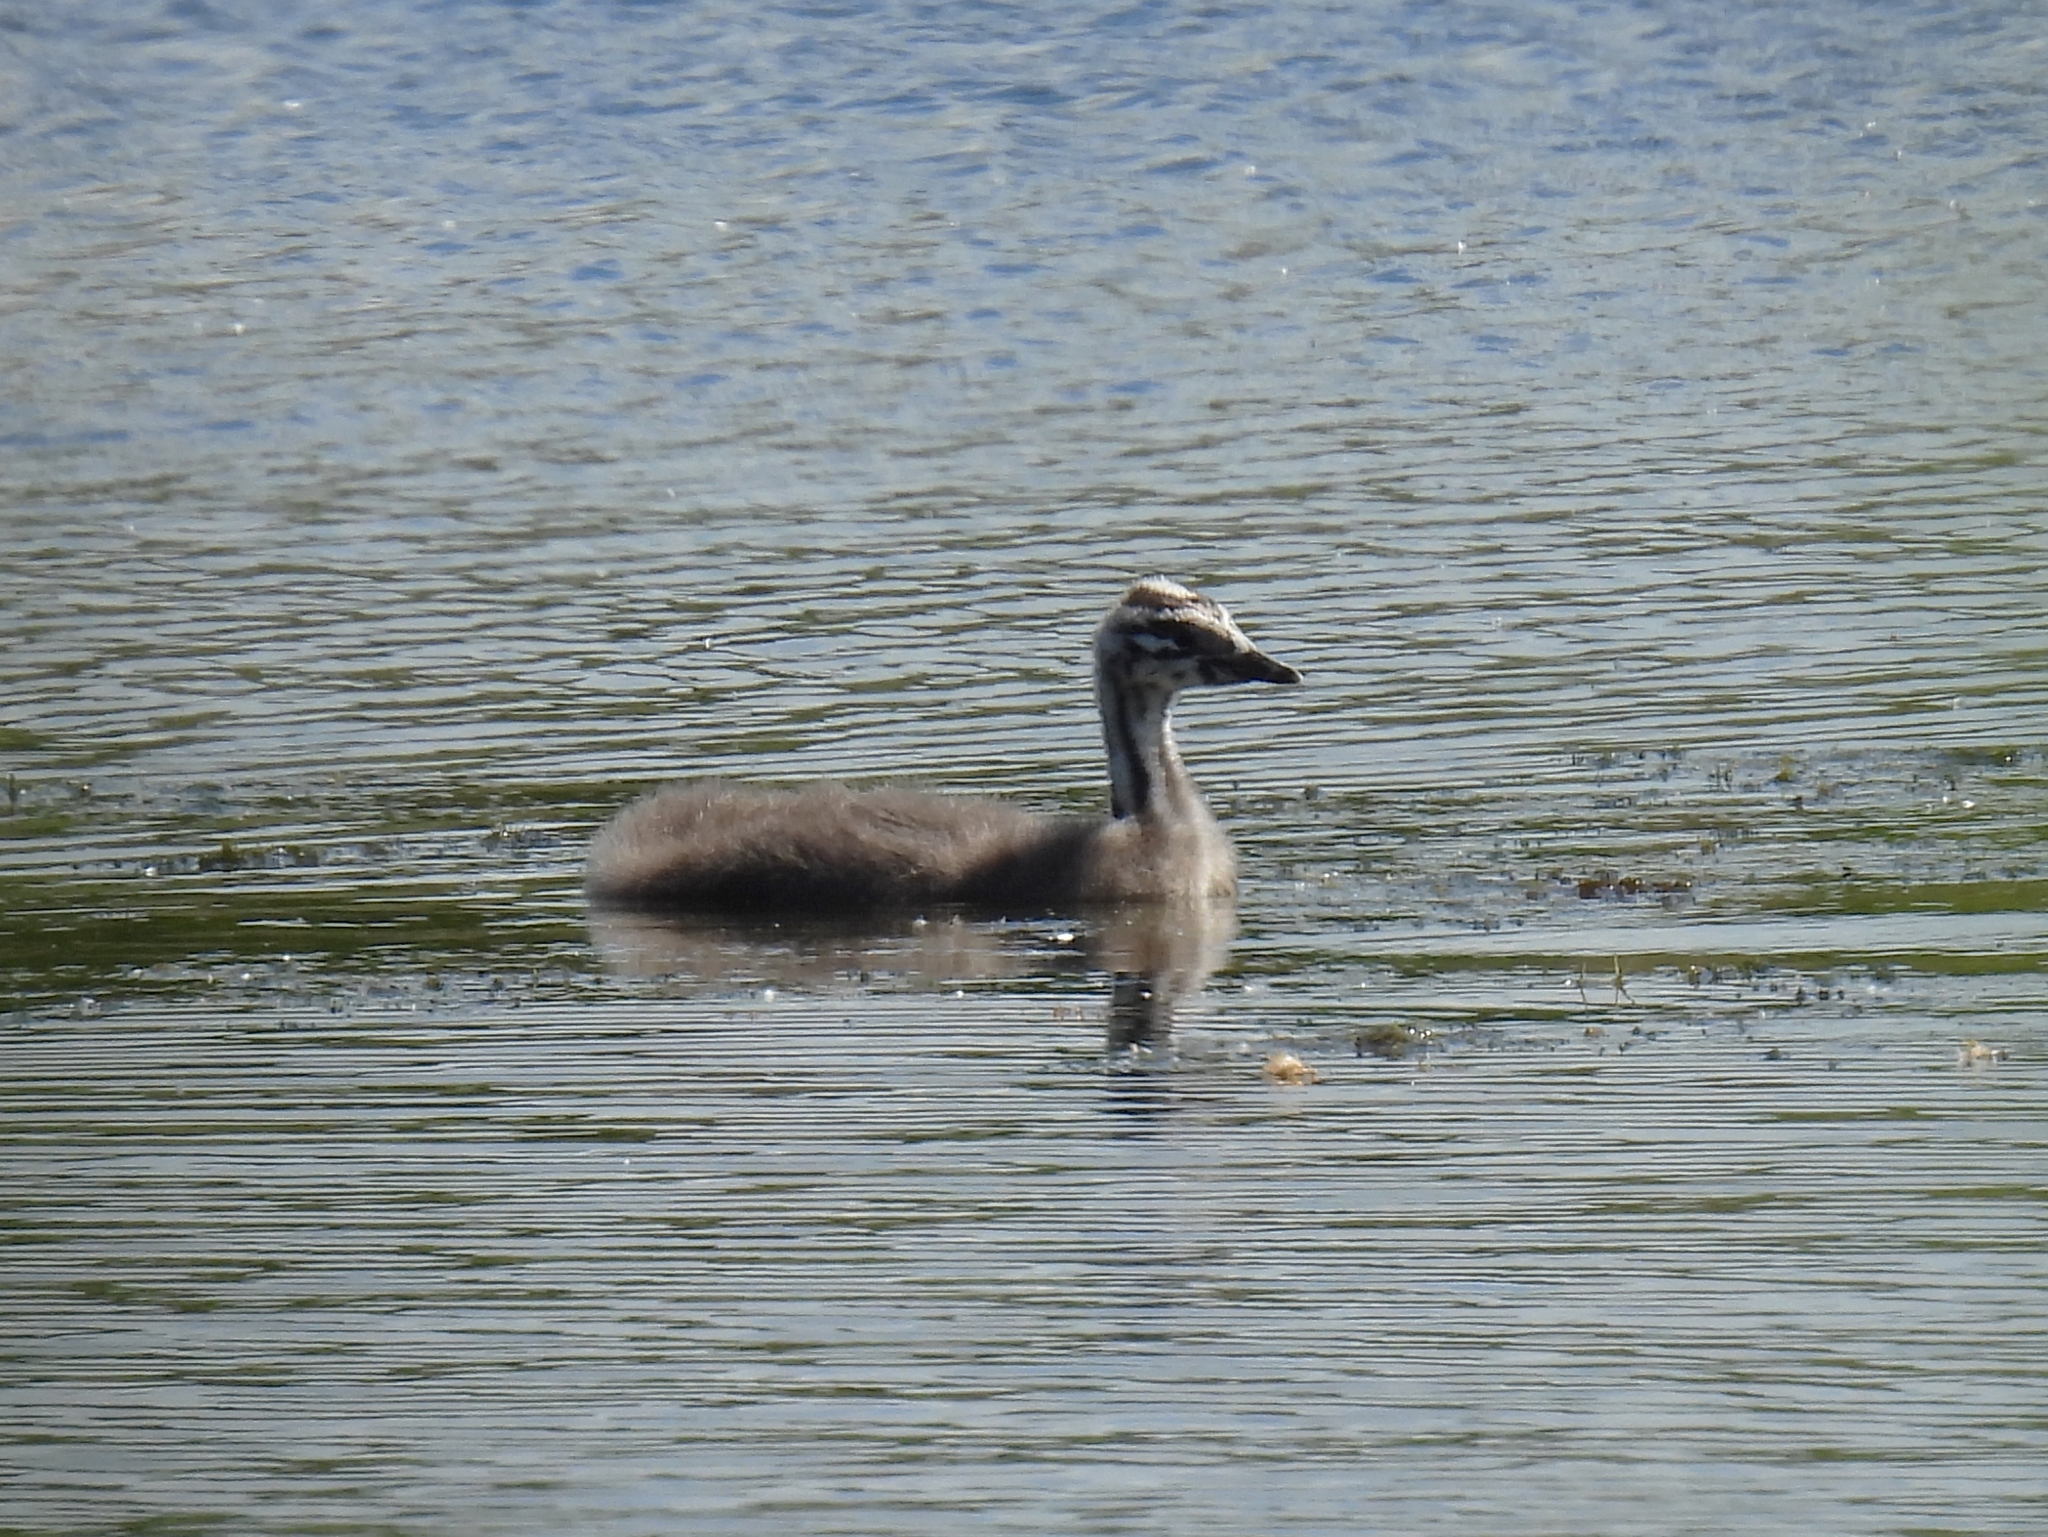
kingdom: Animalia
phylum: Chordata
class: Aves
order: Podicipediformes
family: Podicipedidae
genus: Podiceps
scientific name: Podiceps cristatus
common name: Great crested grebe
